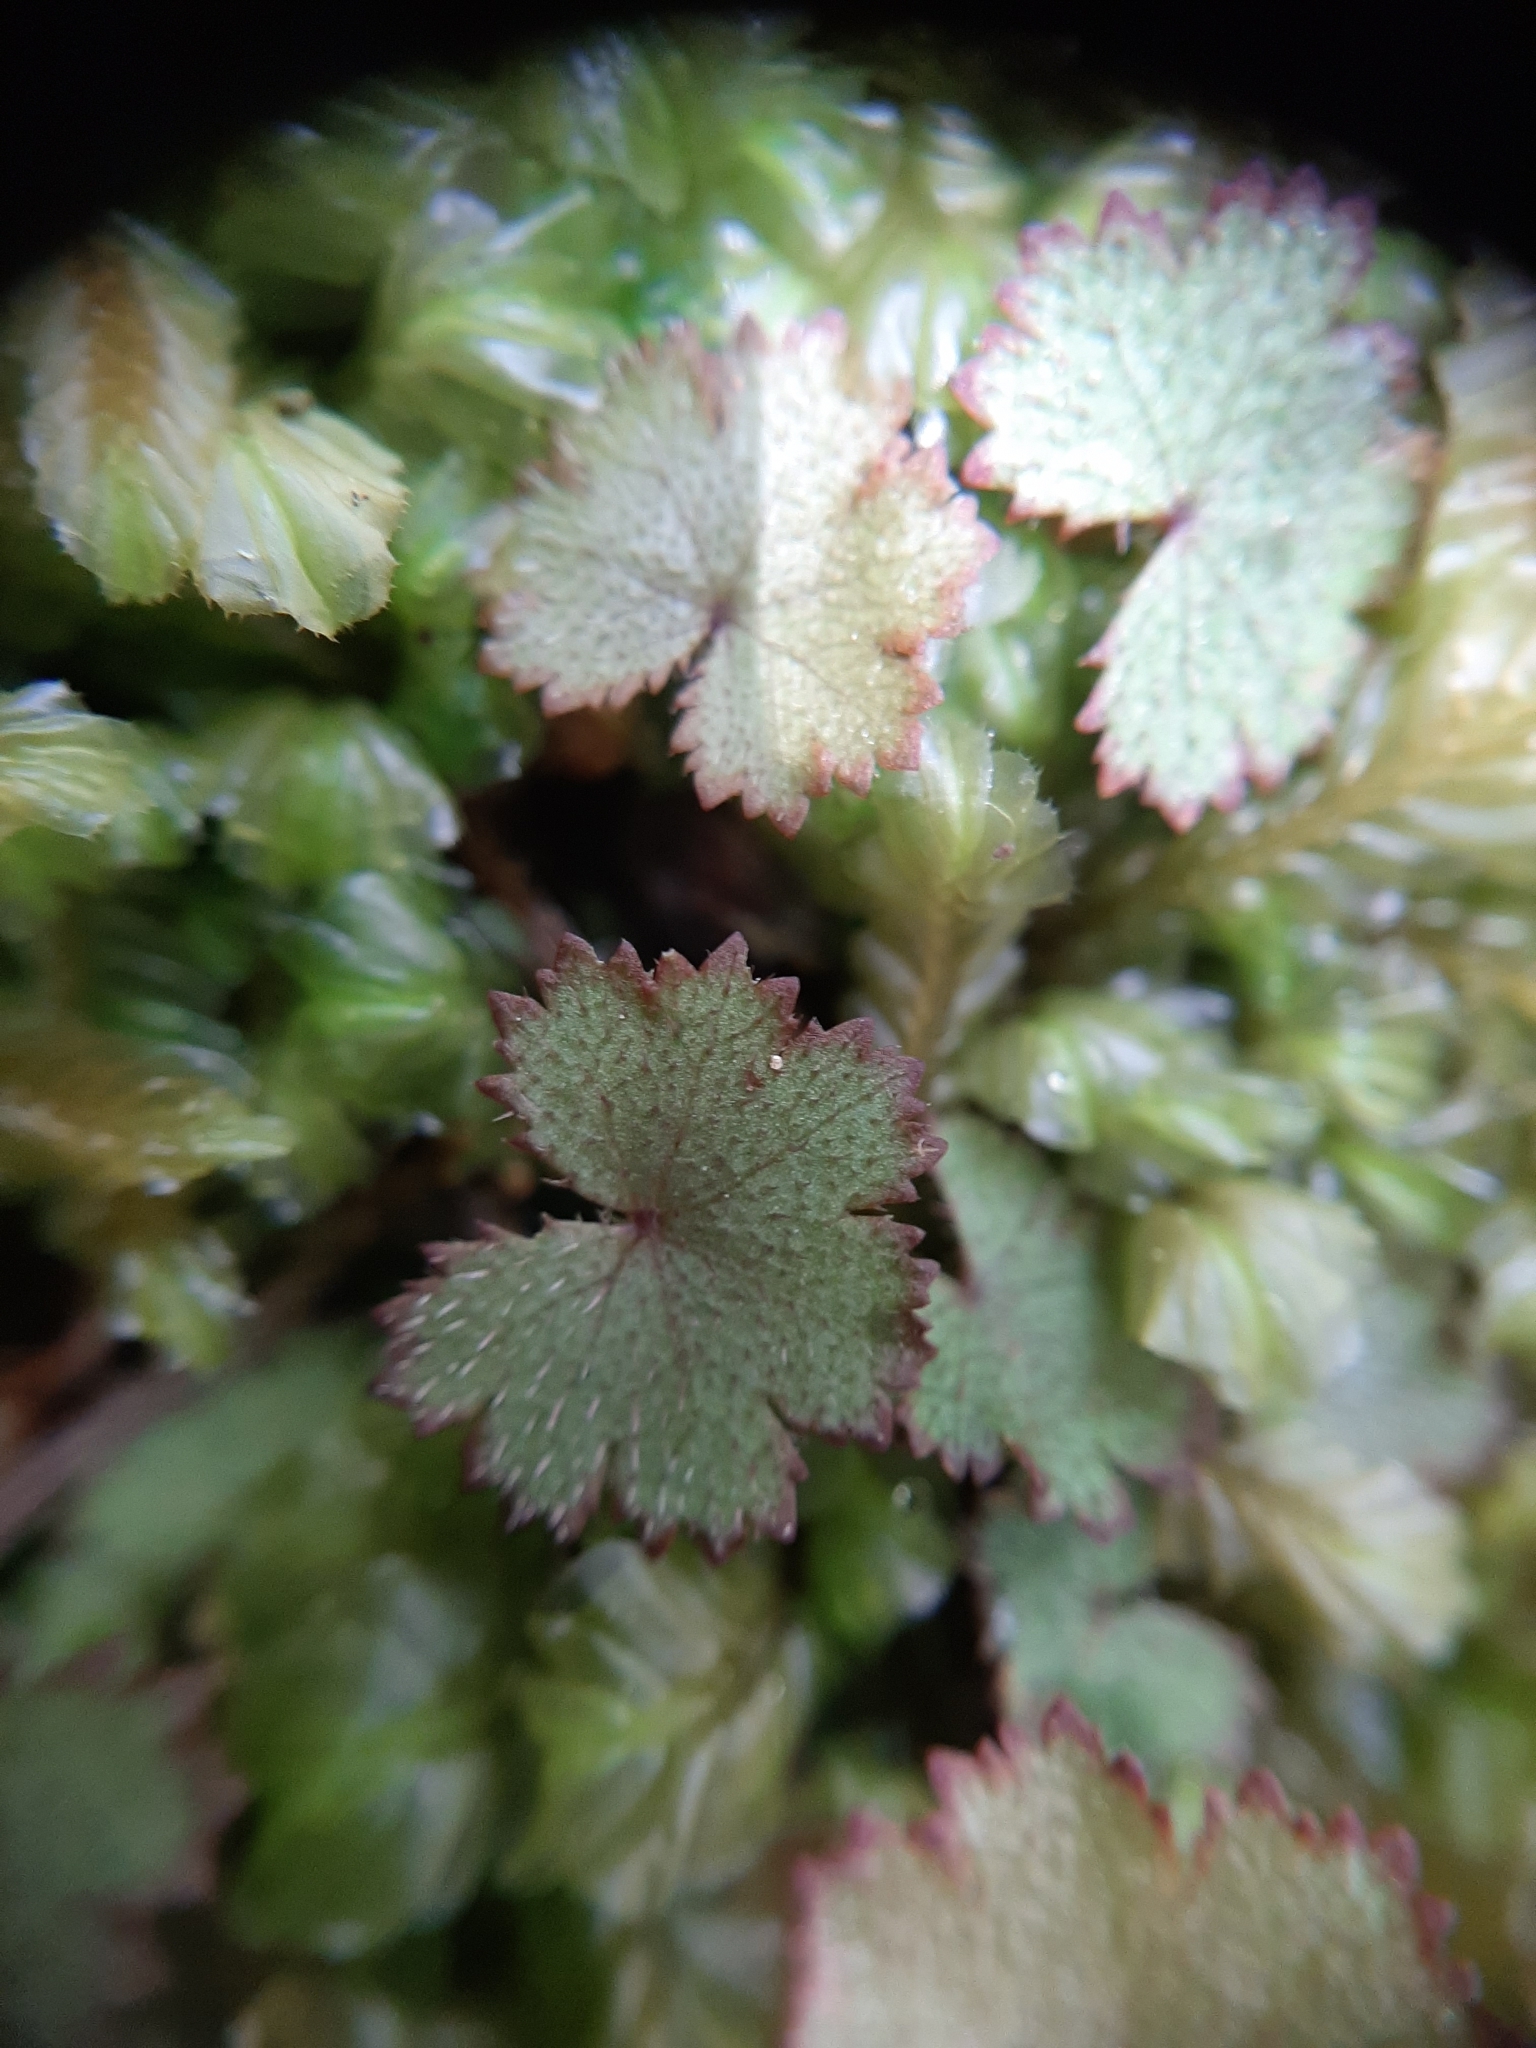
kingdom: Plantae
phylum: Tracheophyta
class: Magnoliopsida
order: Apiales
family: Araliaceae
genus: Hydrocotyle
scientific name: Hydrocotyle moschata
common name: Hairy pennywort
